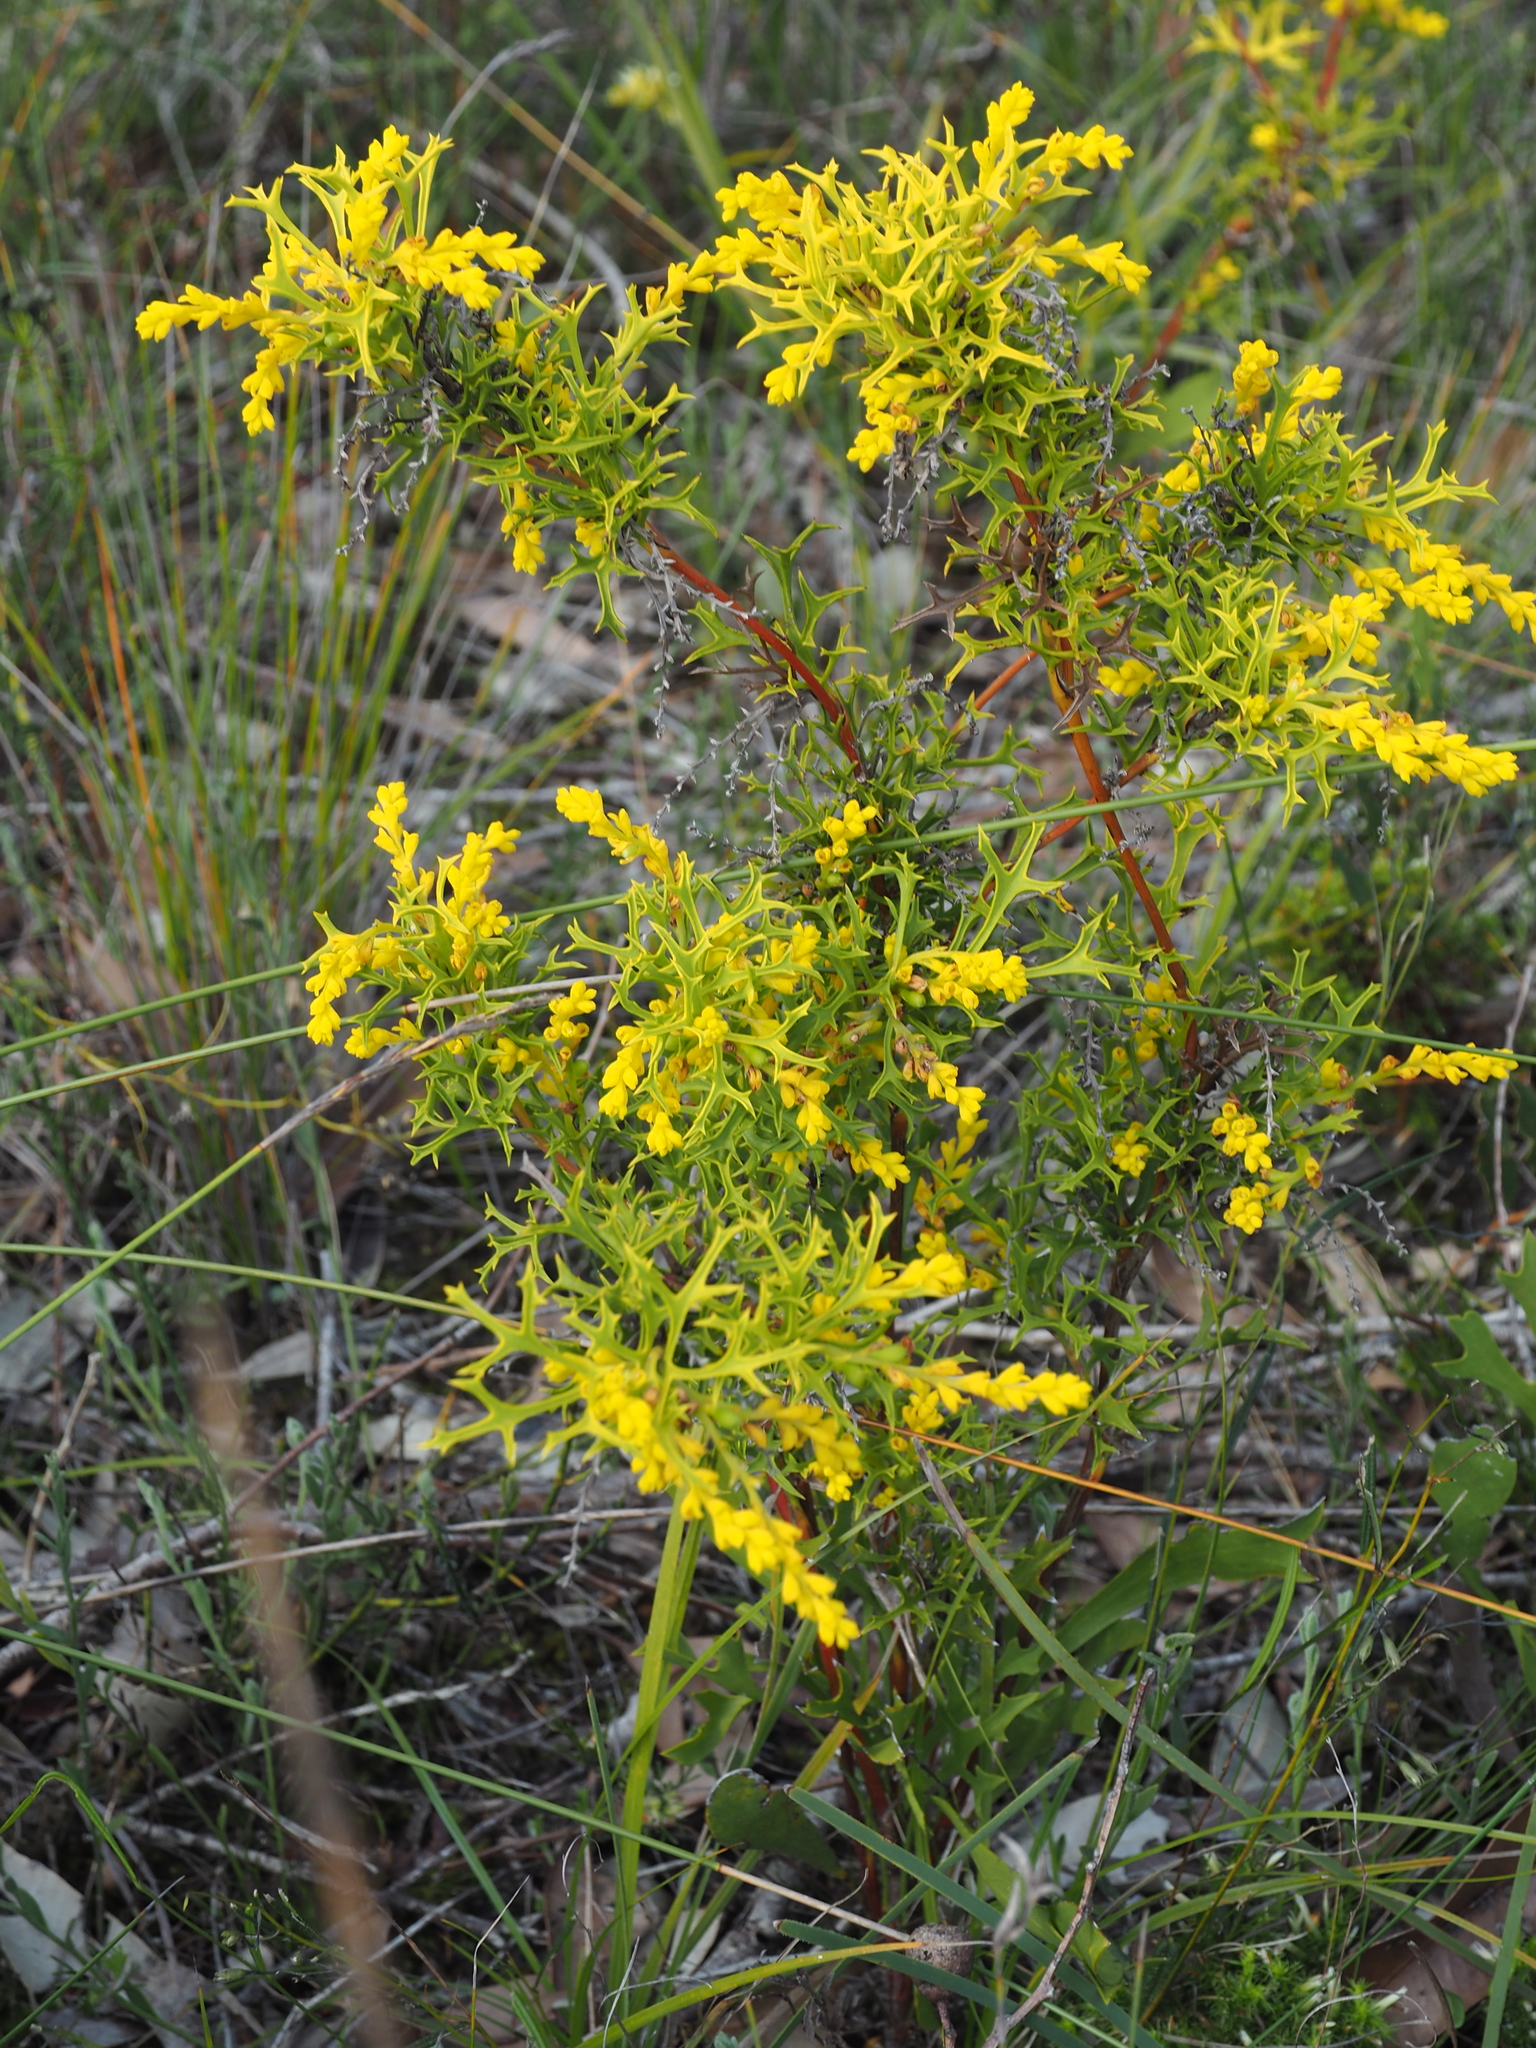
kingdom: Plantae
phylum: Tracheophyta
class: Magnoliopsida
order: Proteales
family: Proteaceae
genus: Synaphea
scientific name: Synaphea polymorpha
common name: Albany synaphea
